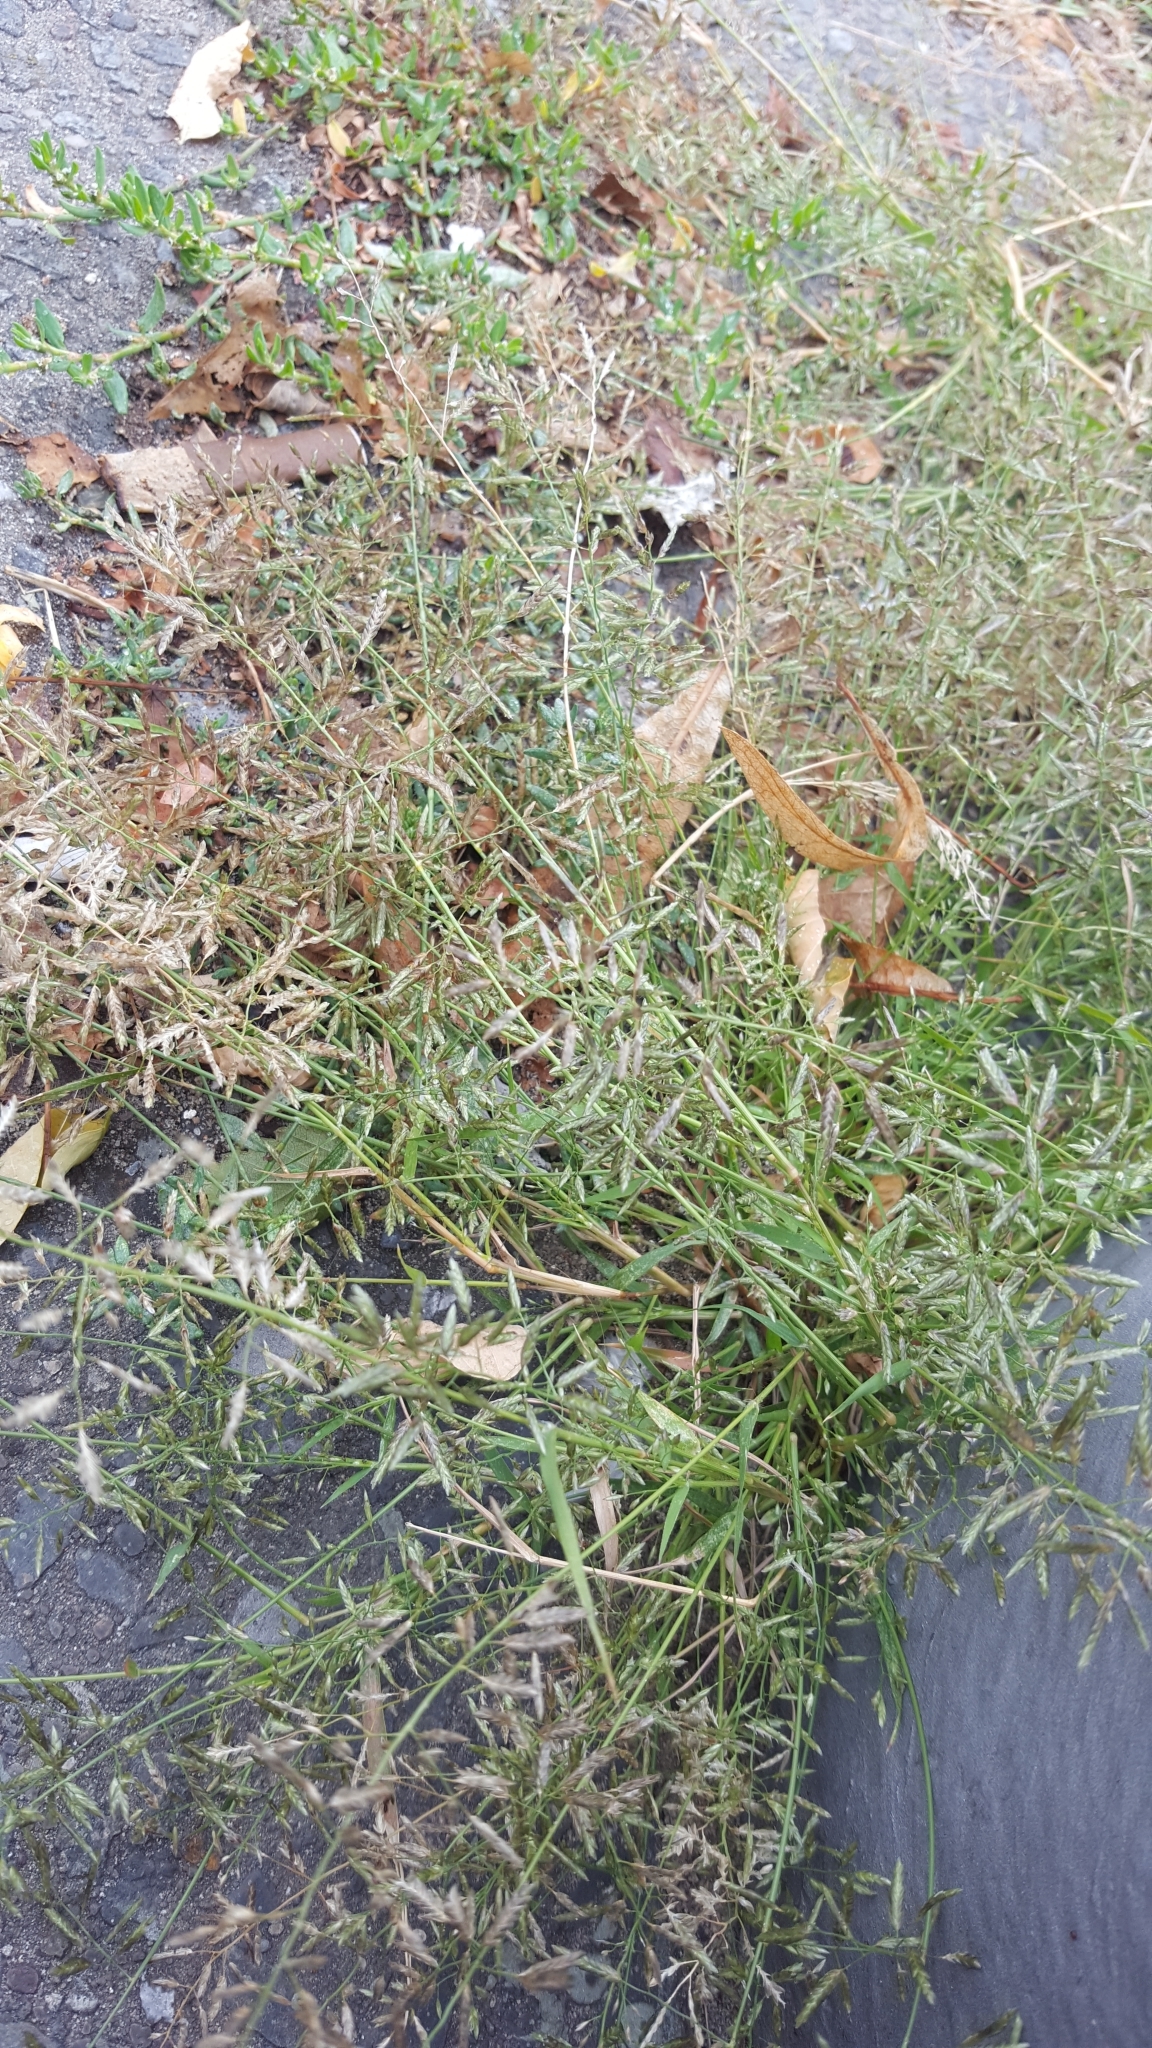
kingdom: Plantae
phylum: Tracheophyta
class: Liliopsida
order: Poales
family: Poaceae
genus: Eragrostis
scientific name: Eragrostis minor
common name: Small love-grass
